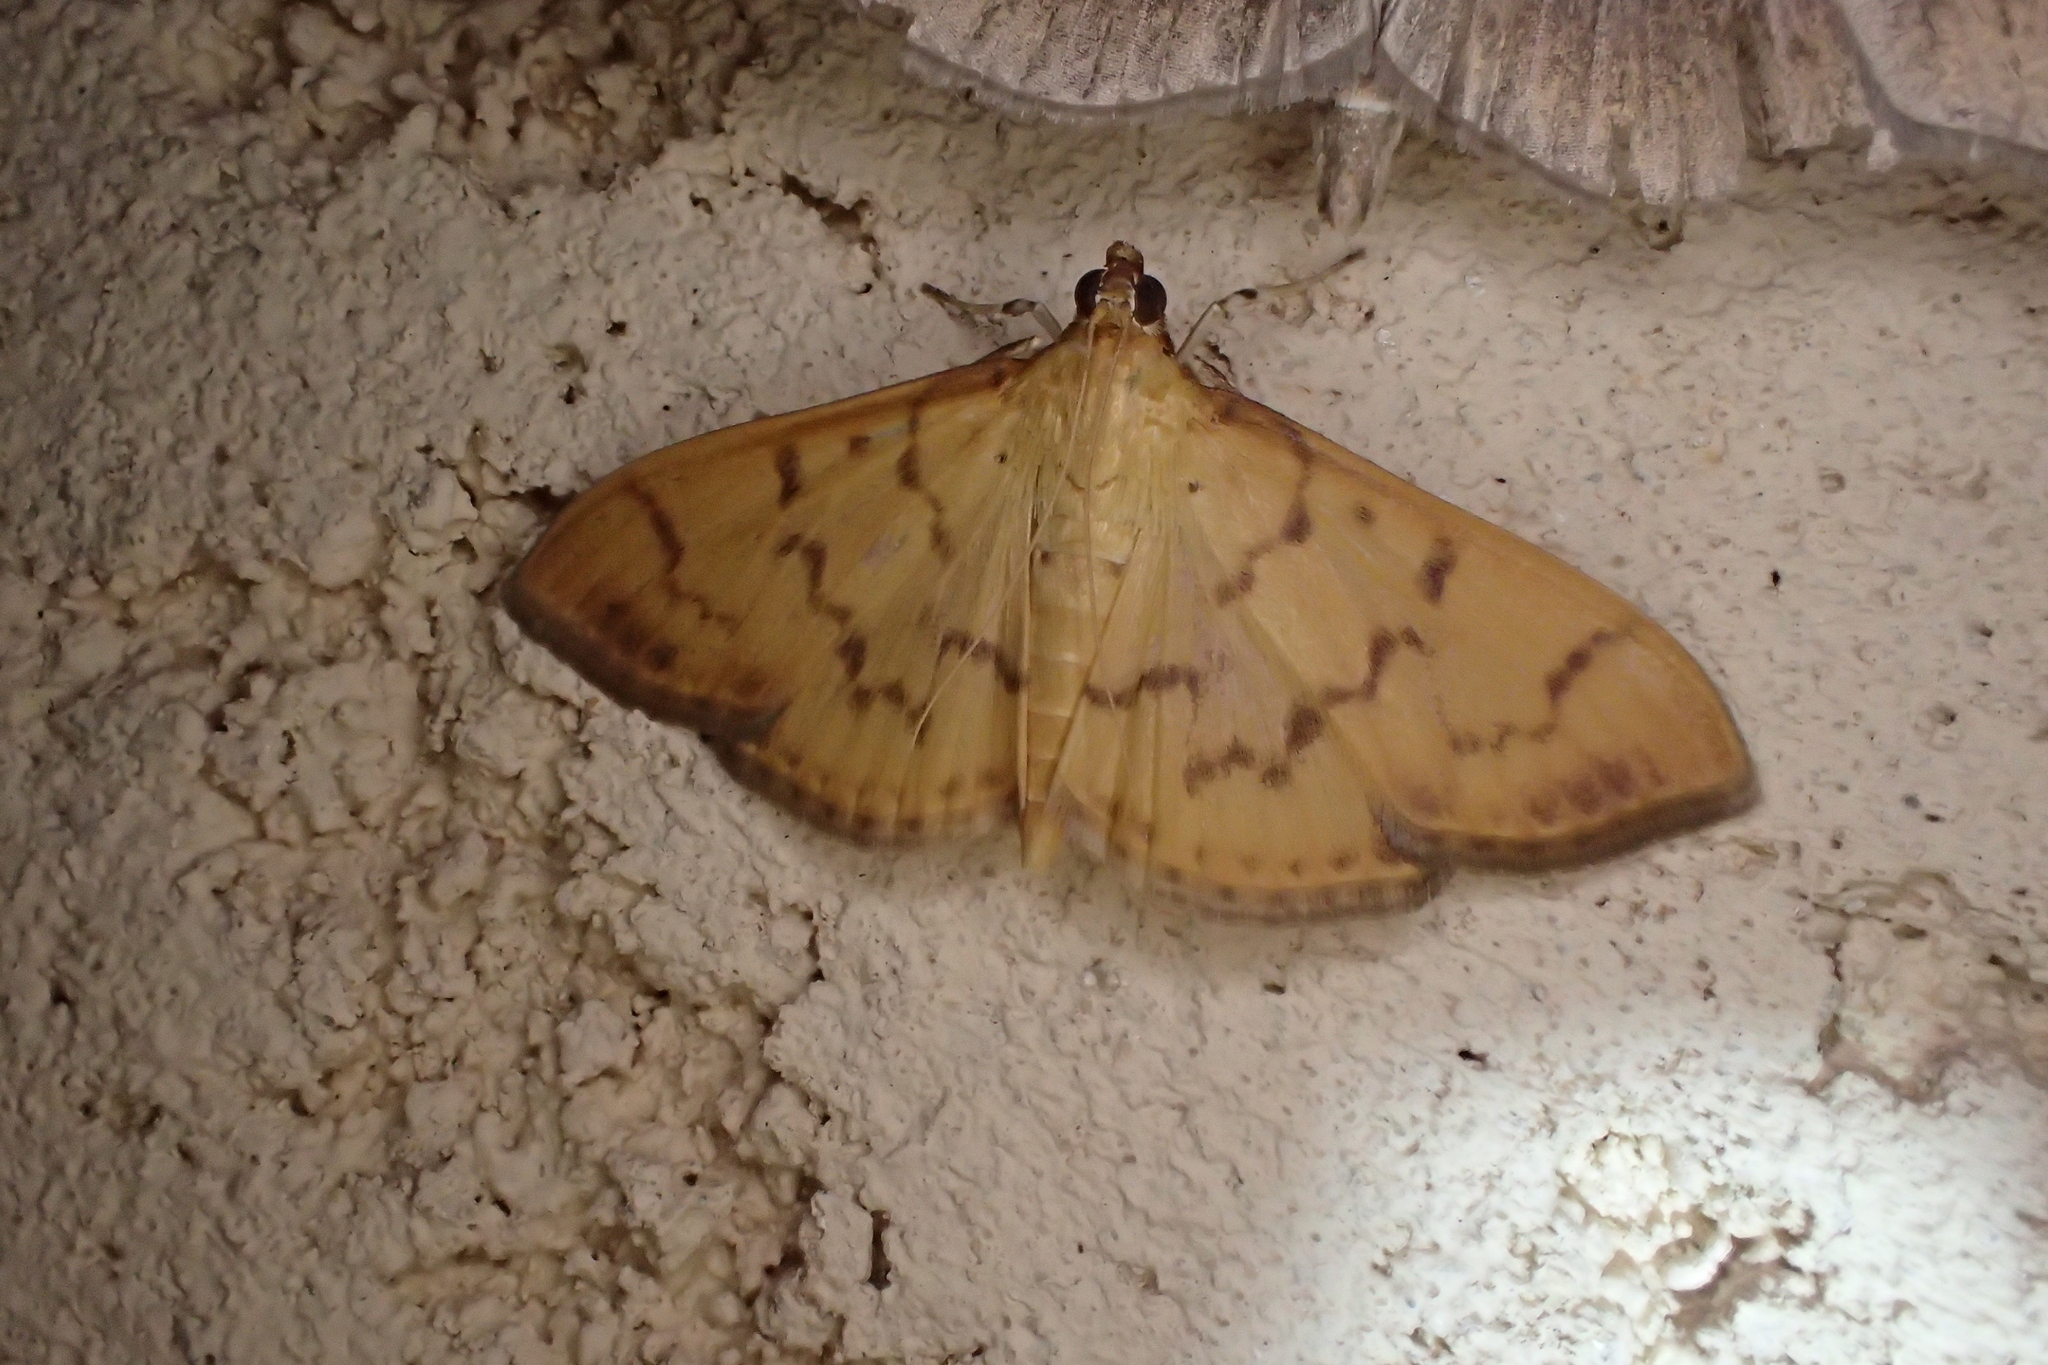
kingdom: Animalia
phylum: Arthropoda
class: Insecta
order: Lepidoptera
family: Crambidae
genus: Pleuroptya
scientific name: Pleuroptya balteata
